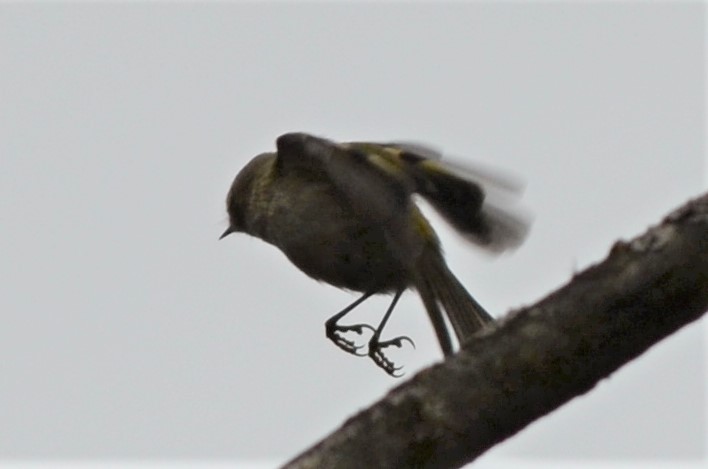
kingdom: Animalia
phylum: Chordata
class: Aves
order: Passeriformes
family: Regulidae
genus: Regulus
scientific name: Regulus regulus
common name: Goldcrest
